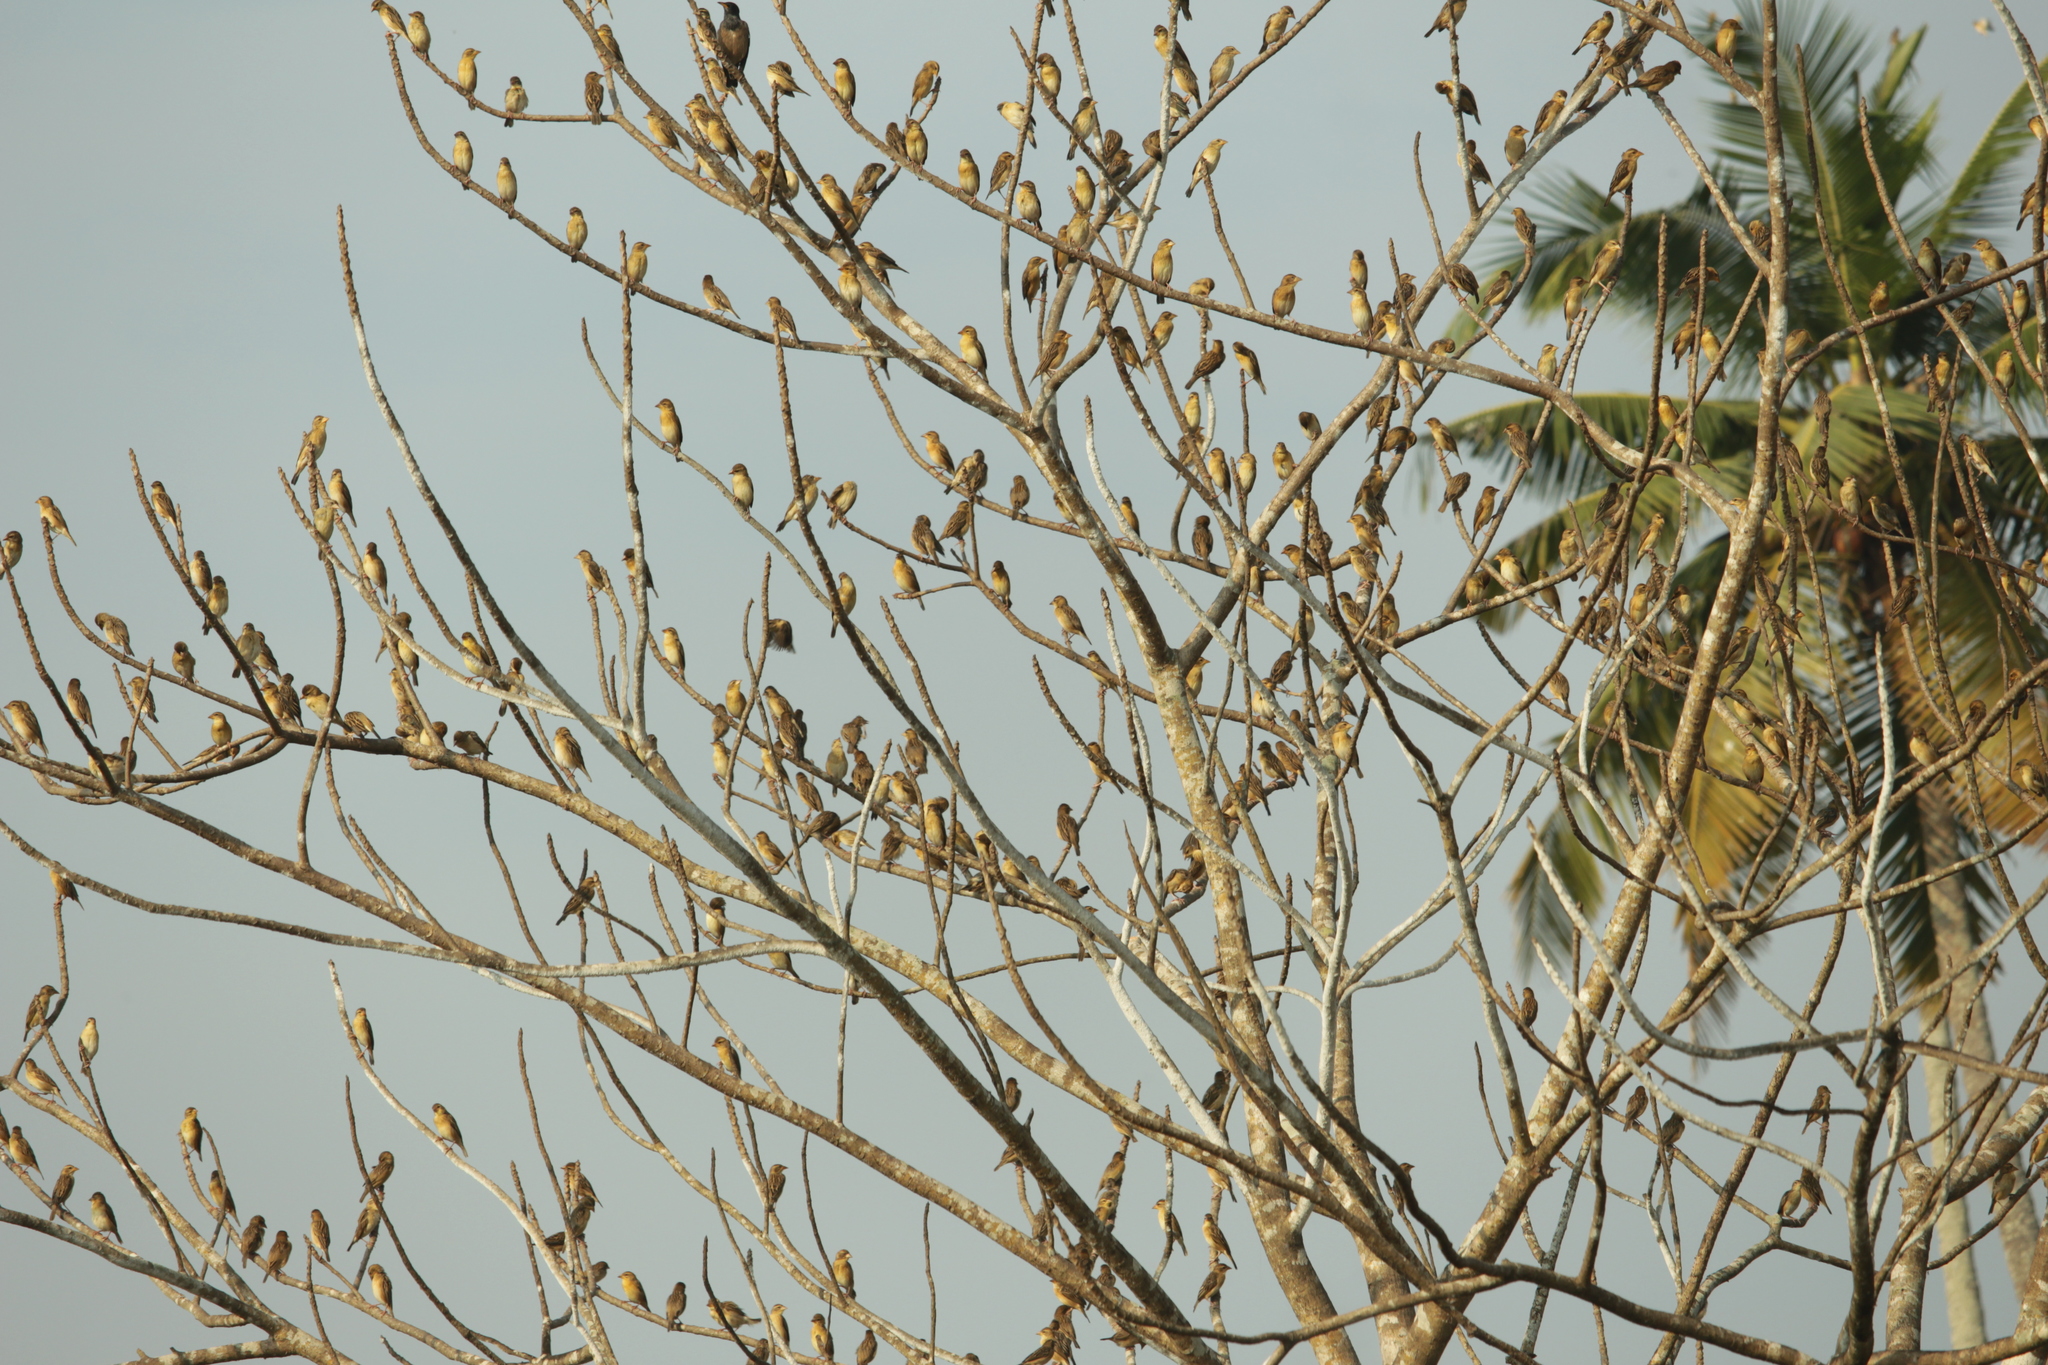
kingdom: Animalia
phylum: Chordata
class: Aves
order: Passeriformes
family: Ploceidae
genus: Ploceus
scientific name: Ploceus philippinus
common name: Baya weaver
